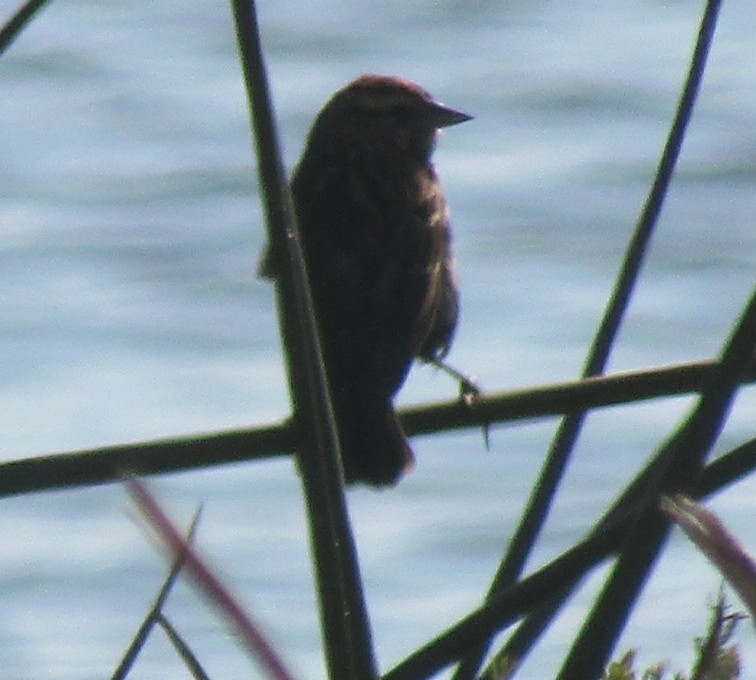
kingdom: Animalia
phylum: Chordata
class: Aves
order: Passeriformes
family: Icteridae
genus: Agelaius
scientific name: Agelaius phoeniceus
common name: Red-winged blackbird
